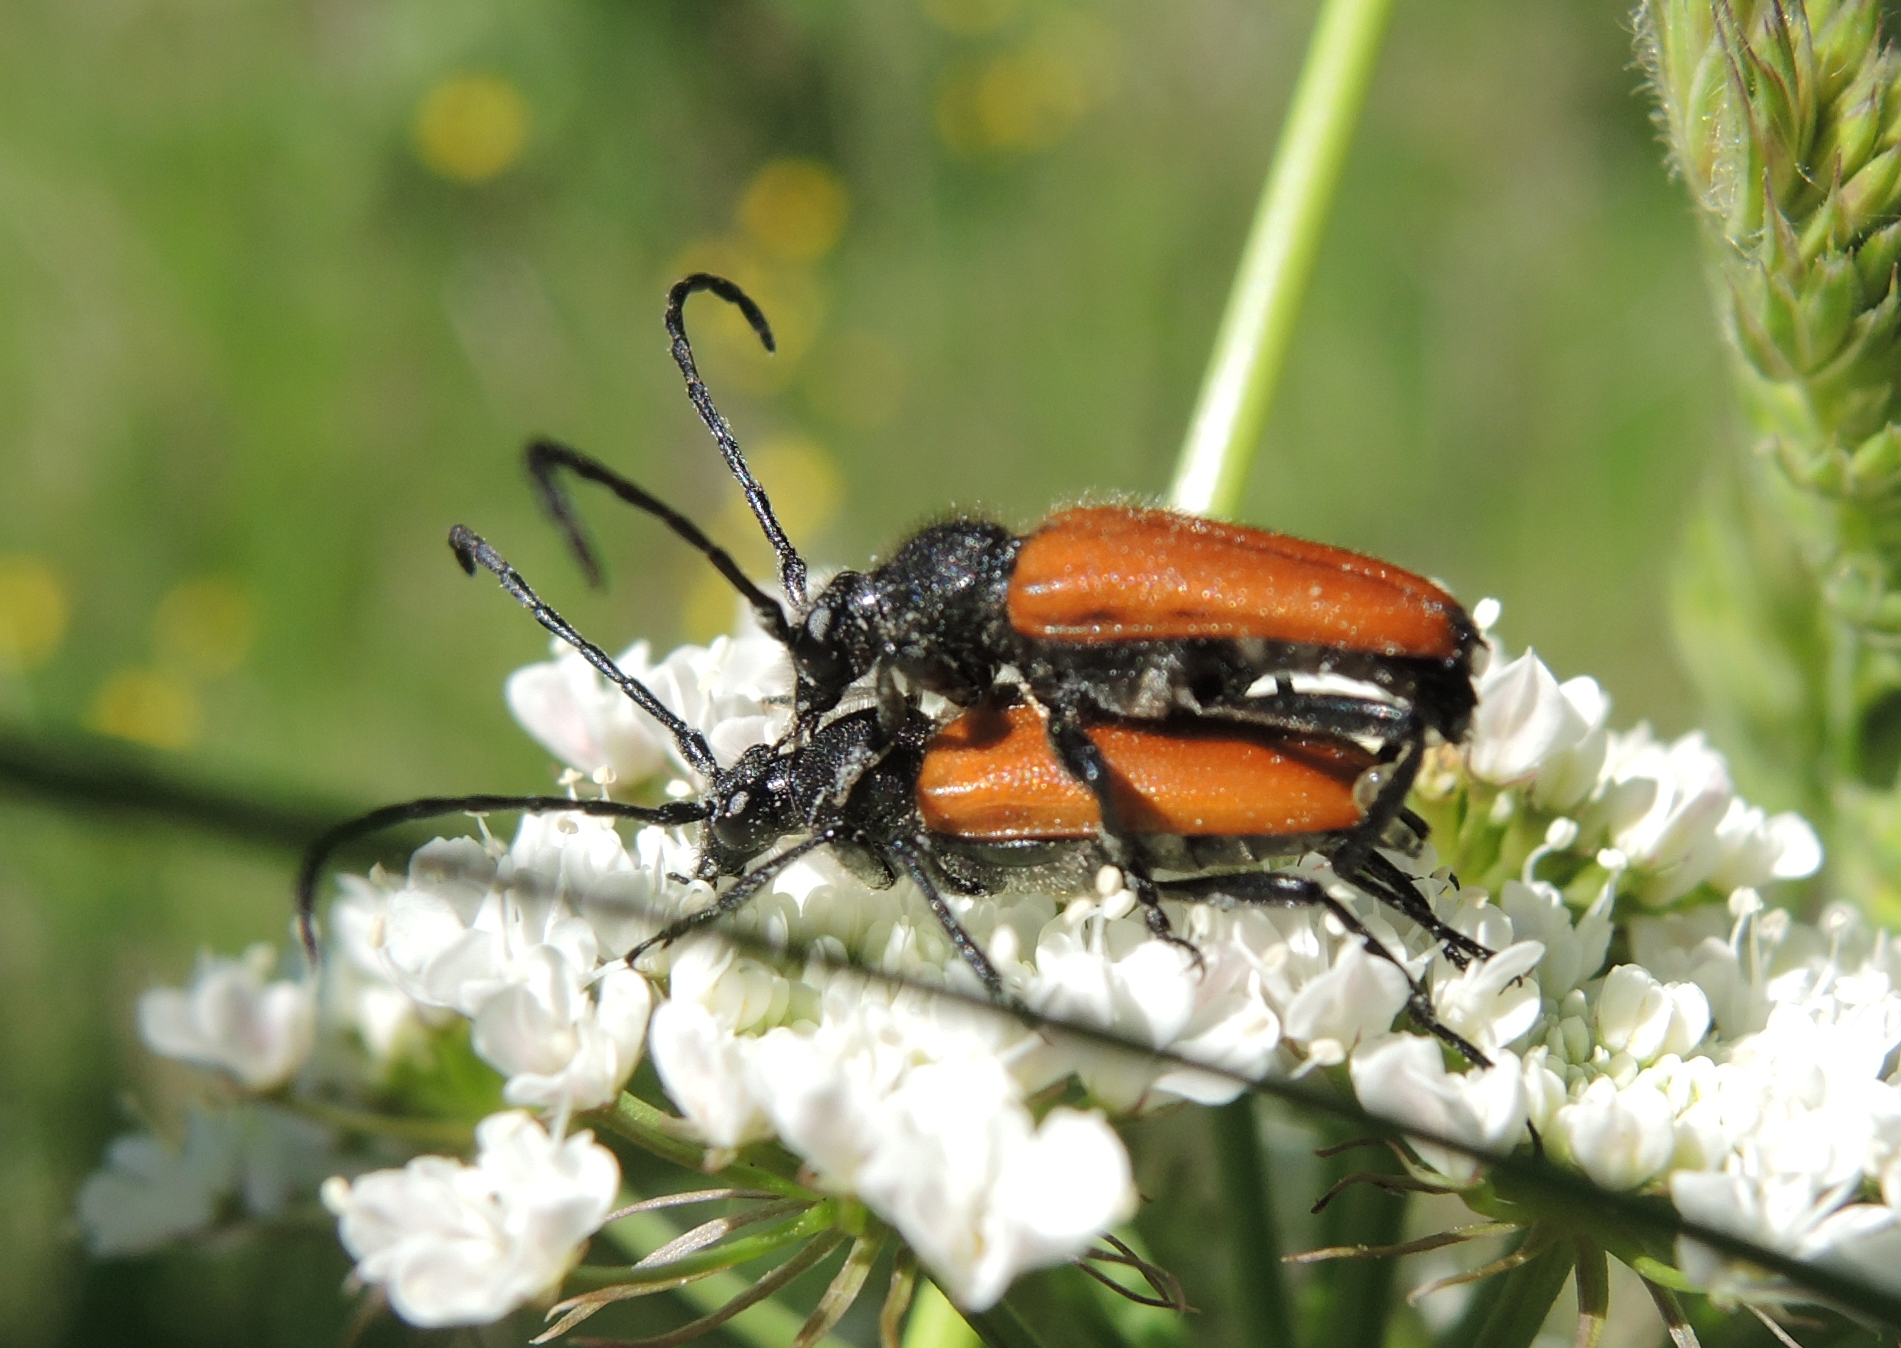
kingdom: Animalia
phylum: Arthropoda
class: Insecta
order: Coleoptera
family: Cerambycidae
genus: Paracorymbia
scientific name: Paracorymbia pallens
